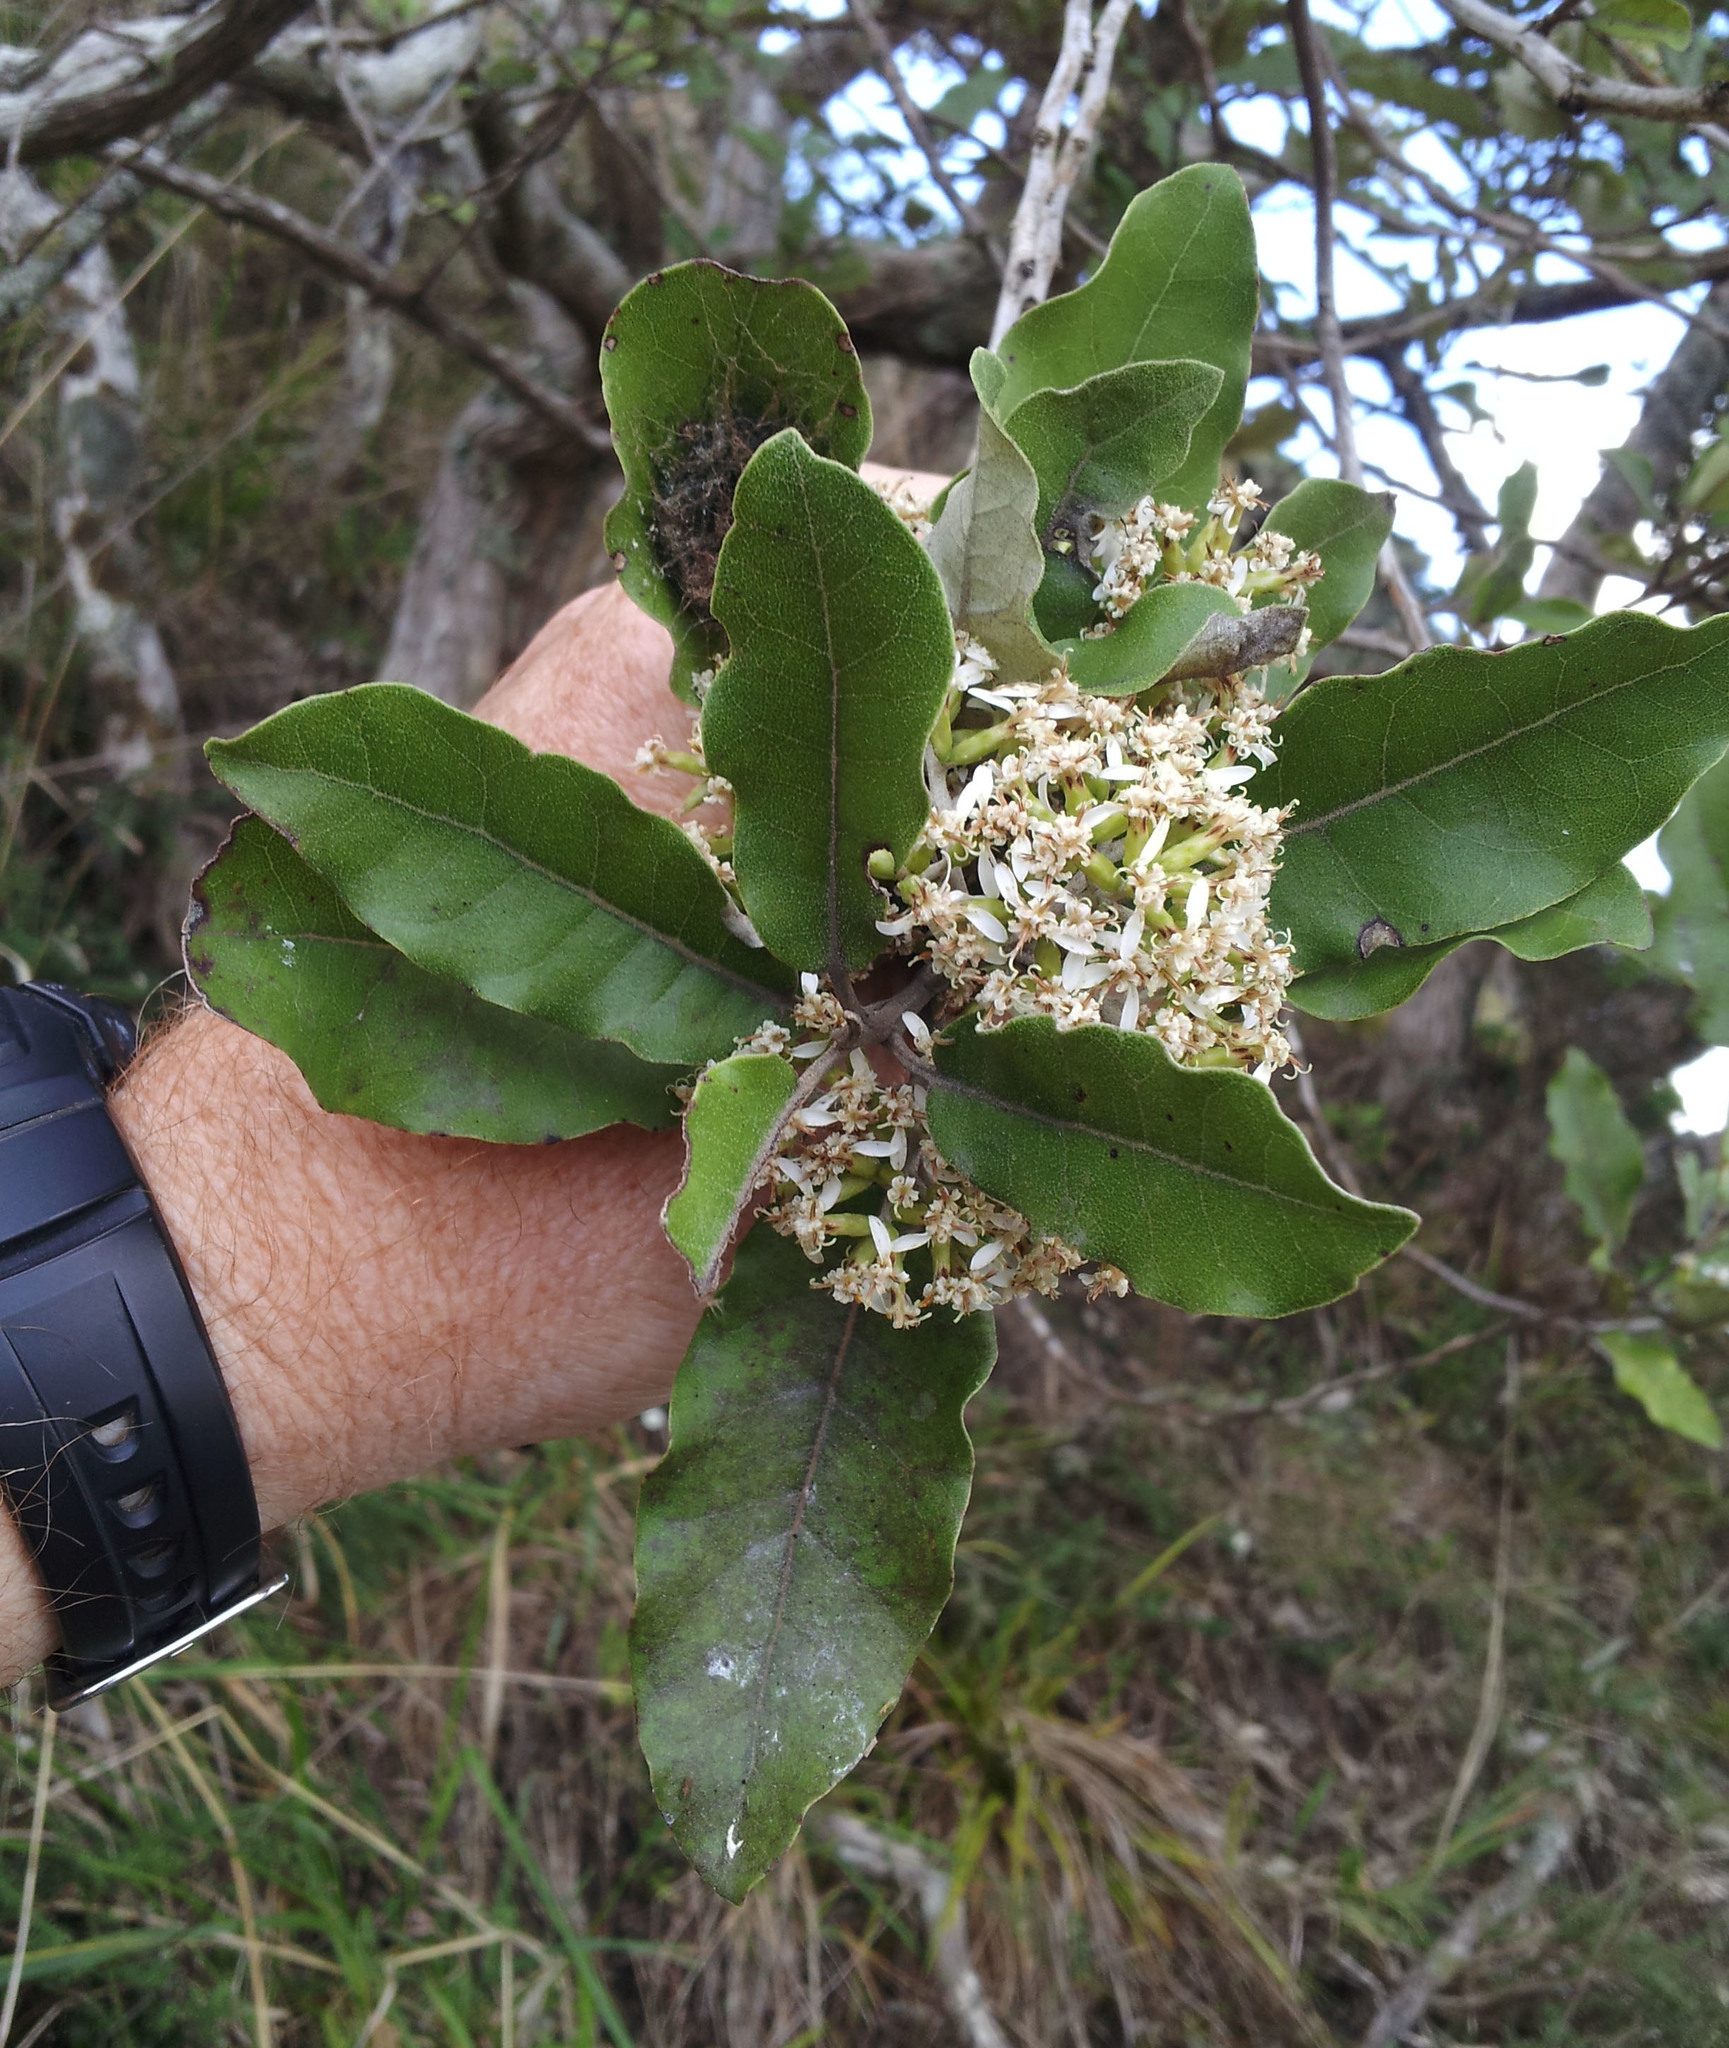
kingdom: Plantae
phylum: Tracheophyta
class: Magnoliopsida
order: Asterales
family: Asteraceae
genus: Olearia
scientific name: Olearia albida
